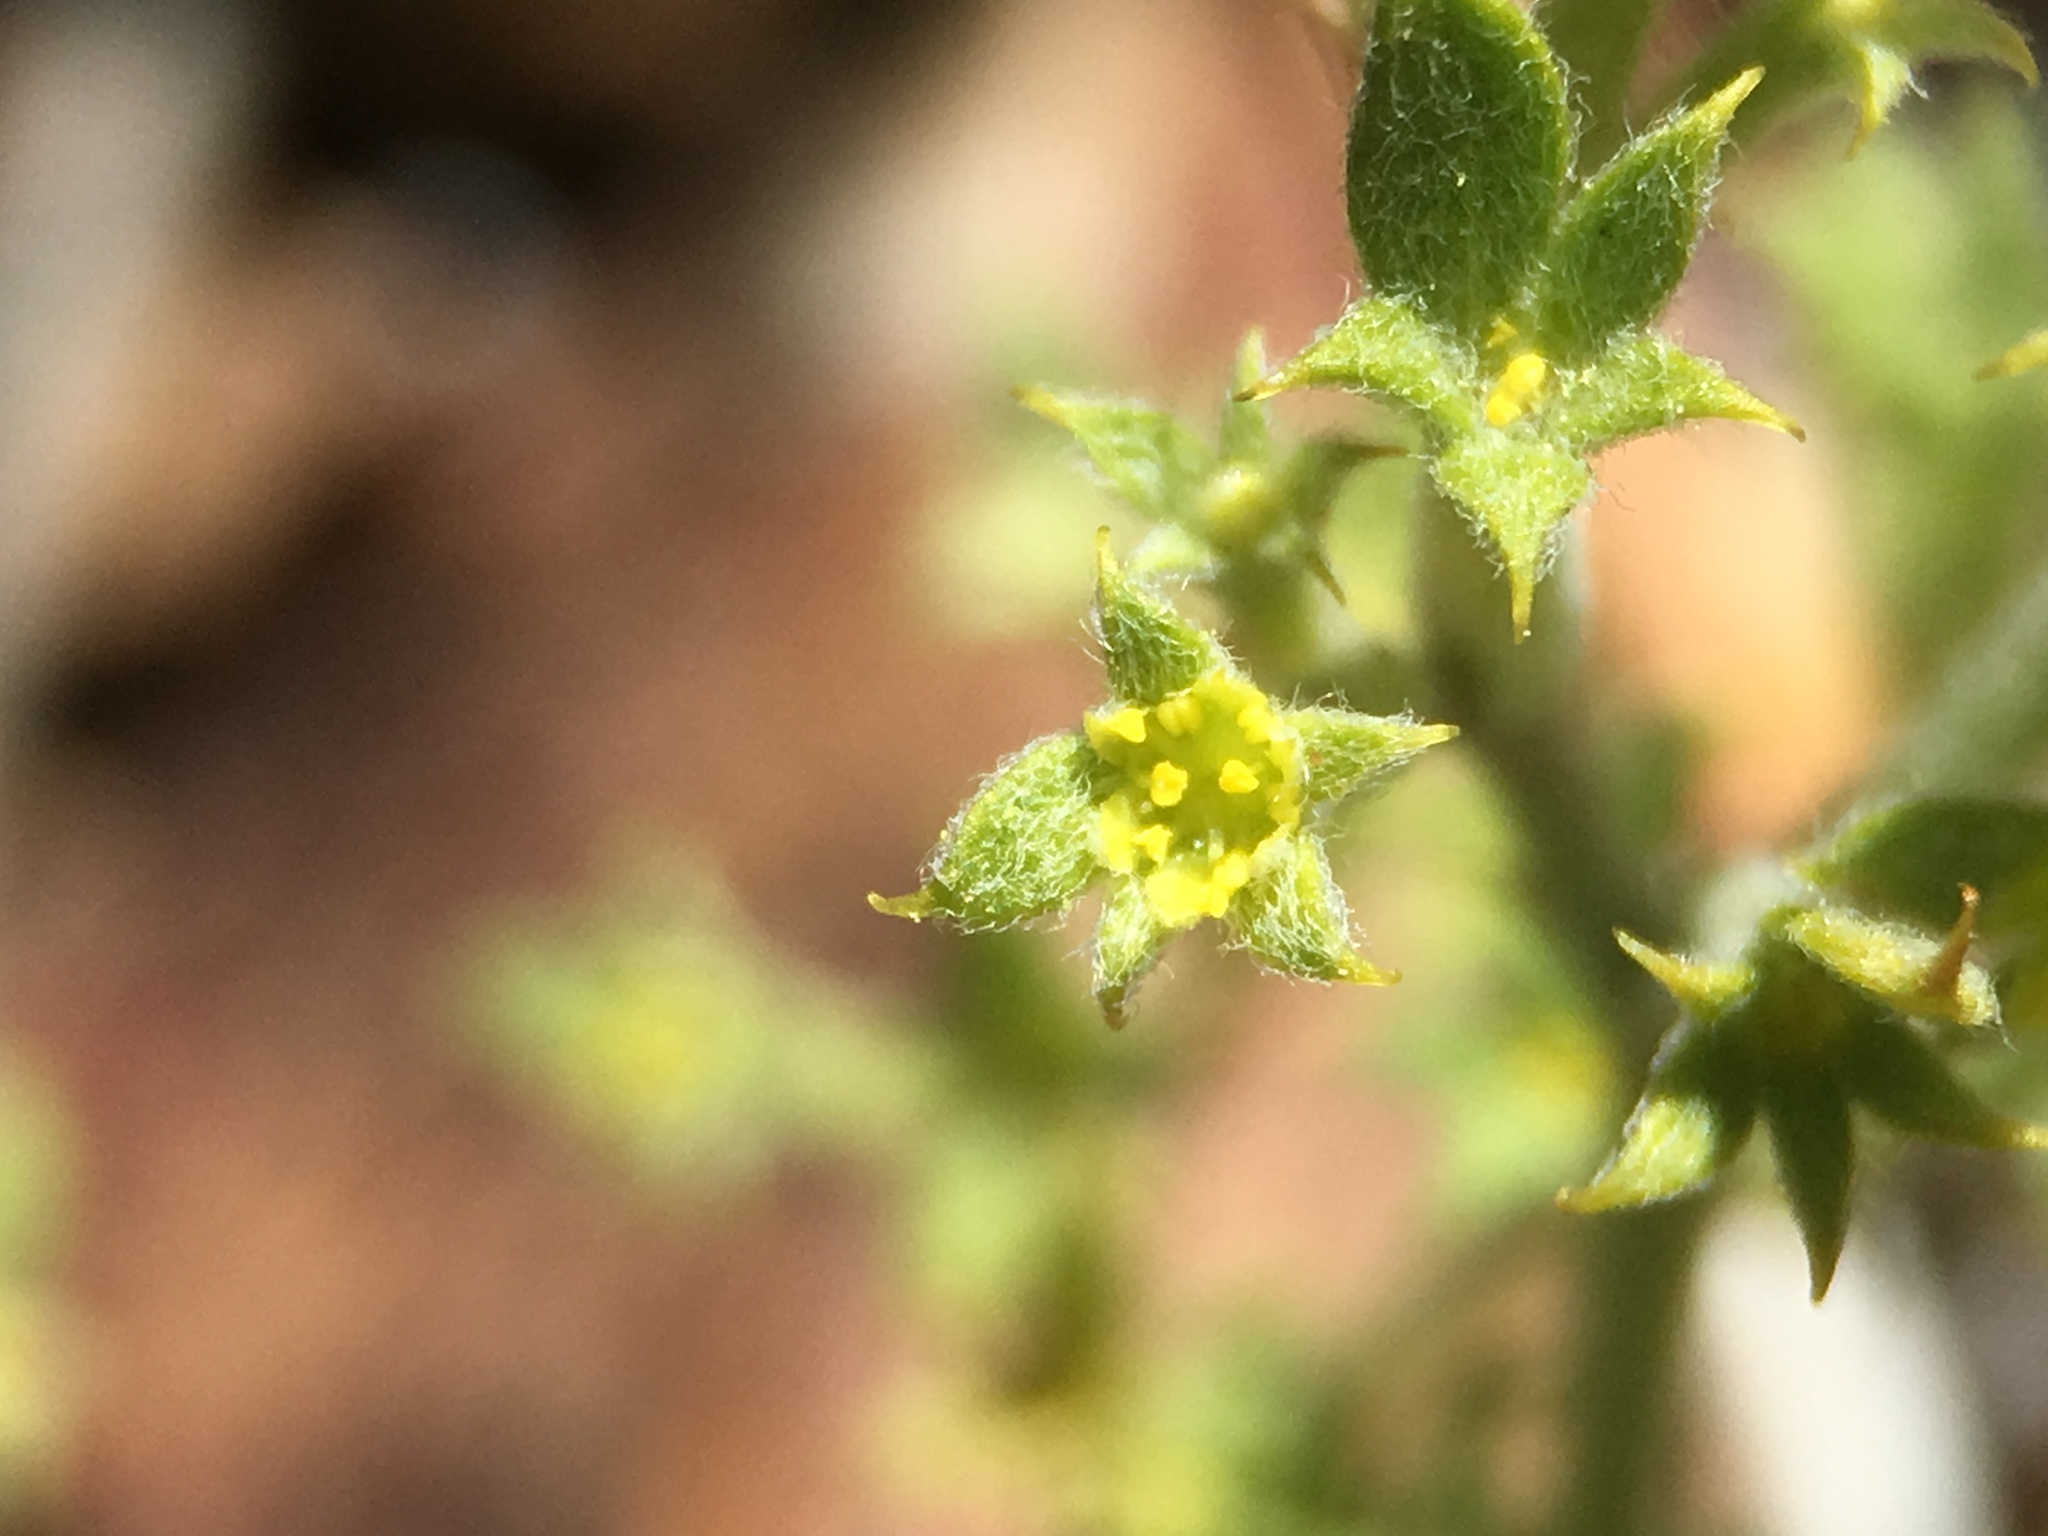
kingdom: Plantae
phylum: Tracheophyta
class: Magnoliopsida
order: Caryophyllales
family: Polygonaceae
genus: Chorizanthe
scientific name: Chorizanthe watsonii
